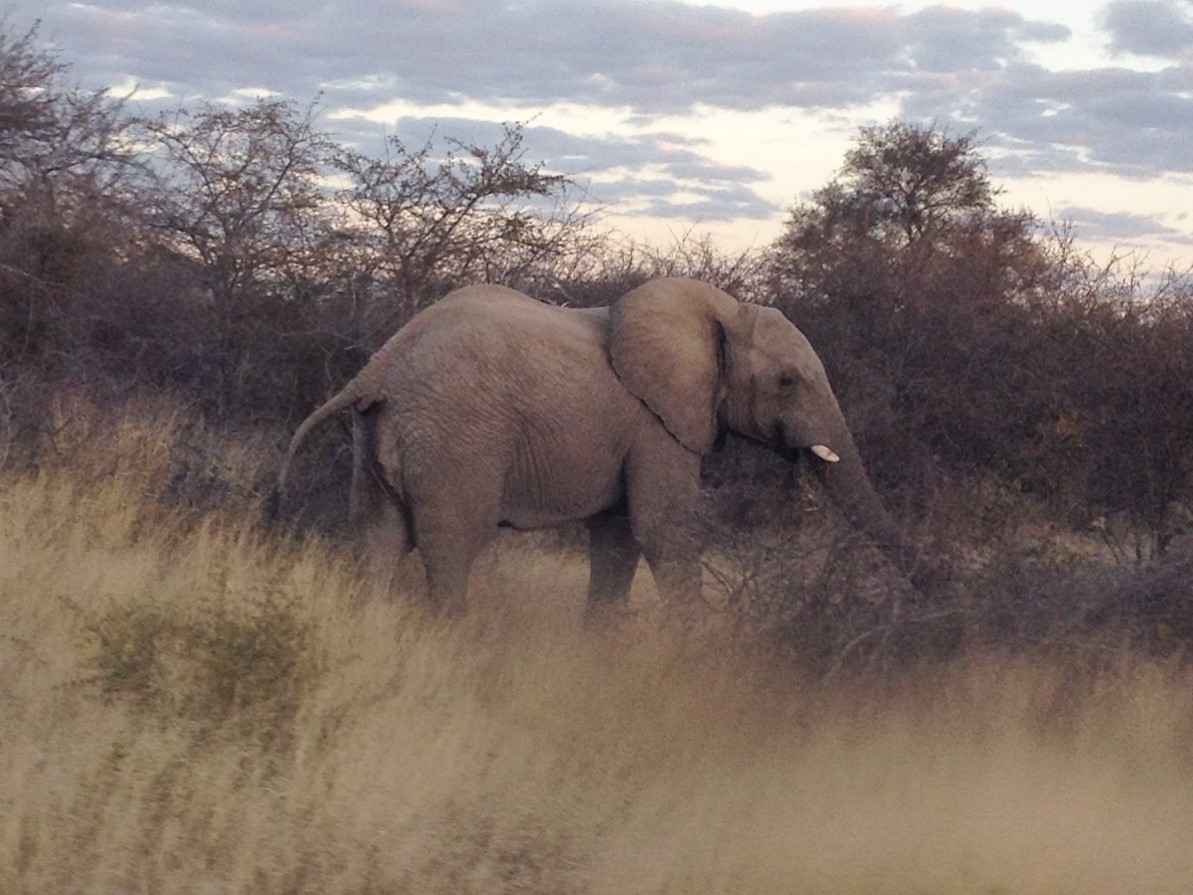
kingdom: Animalia
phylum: Chordata
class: Mammalia
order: Proboscidea
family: Elephantidae
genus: Loxodonta
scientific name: Loxodonta africana
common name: African elephant
